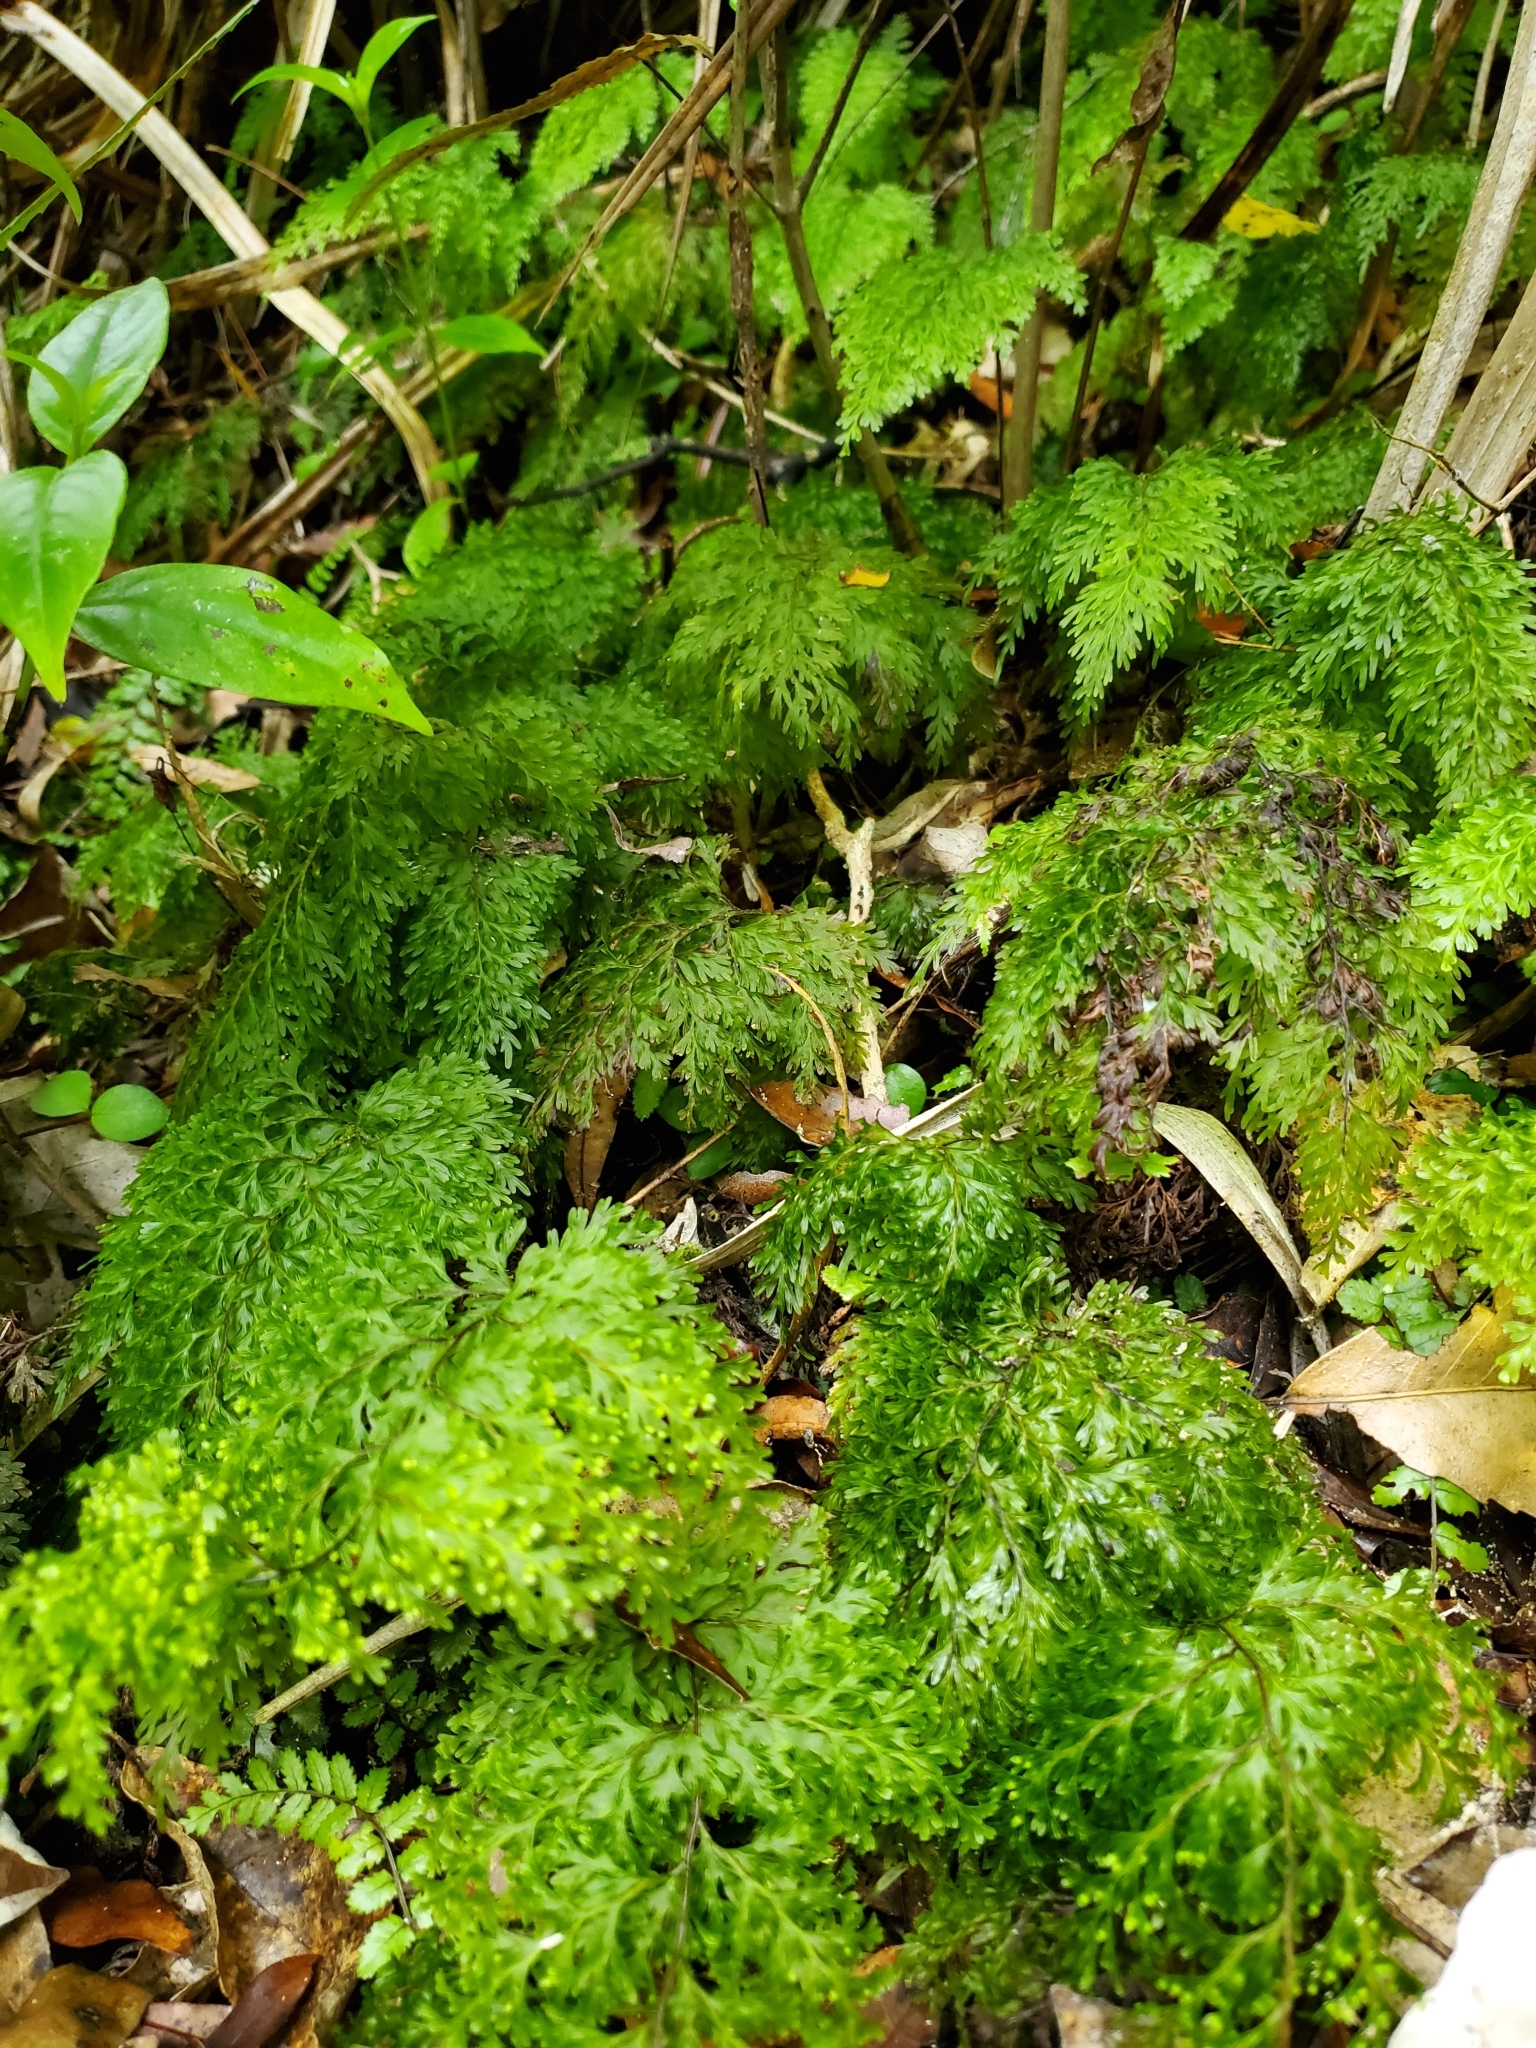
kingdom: Plantae
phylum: Tracheophyta
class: Polypodiopsida
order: Hymenophyllales
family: Hymenophyllaceae
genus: Hymenophyllum
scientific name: Hymenophyllum demissum
